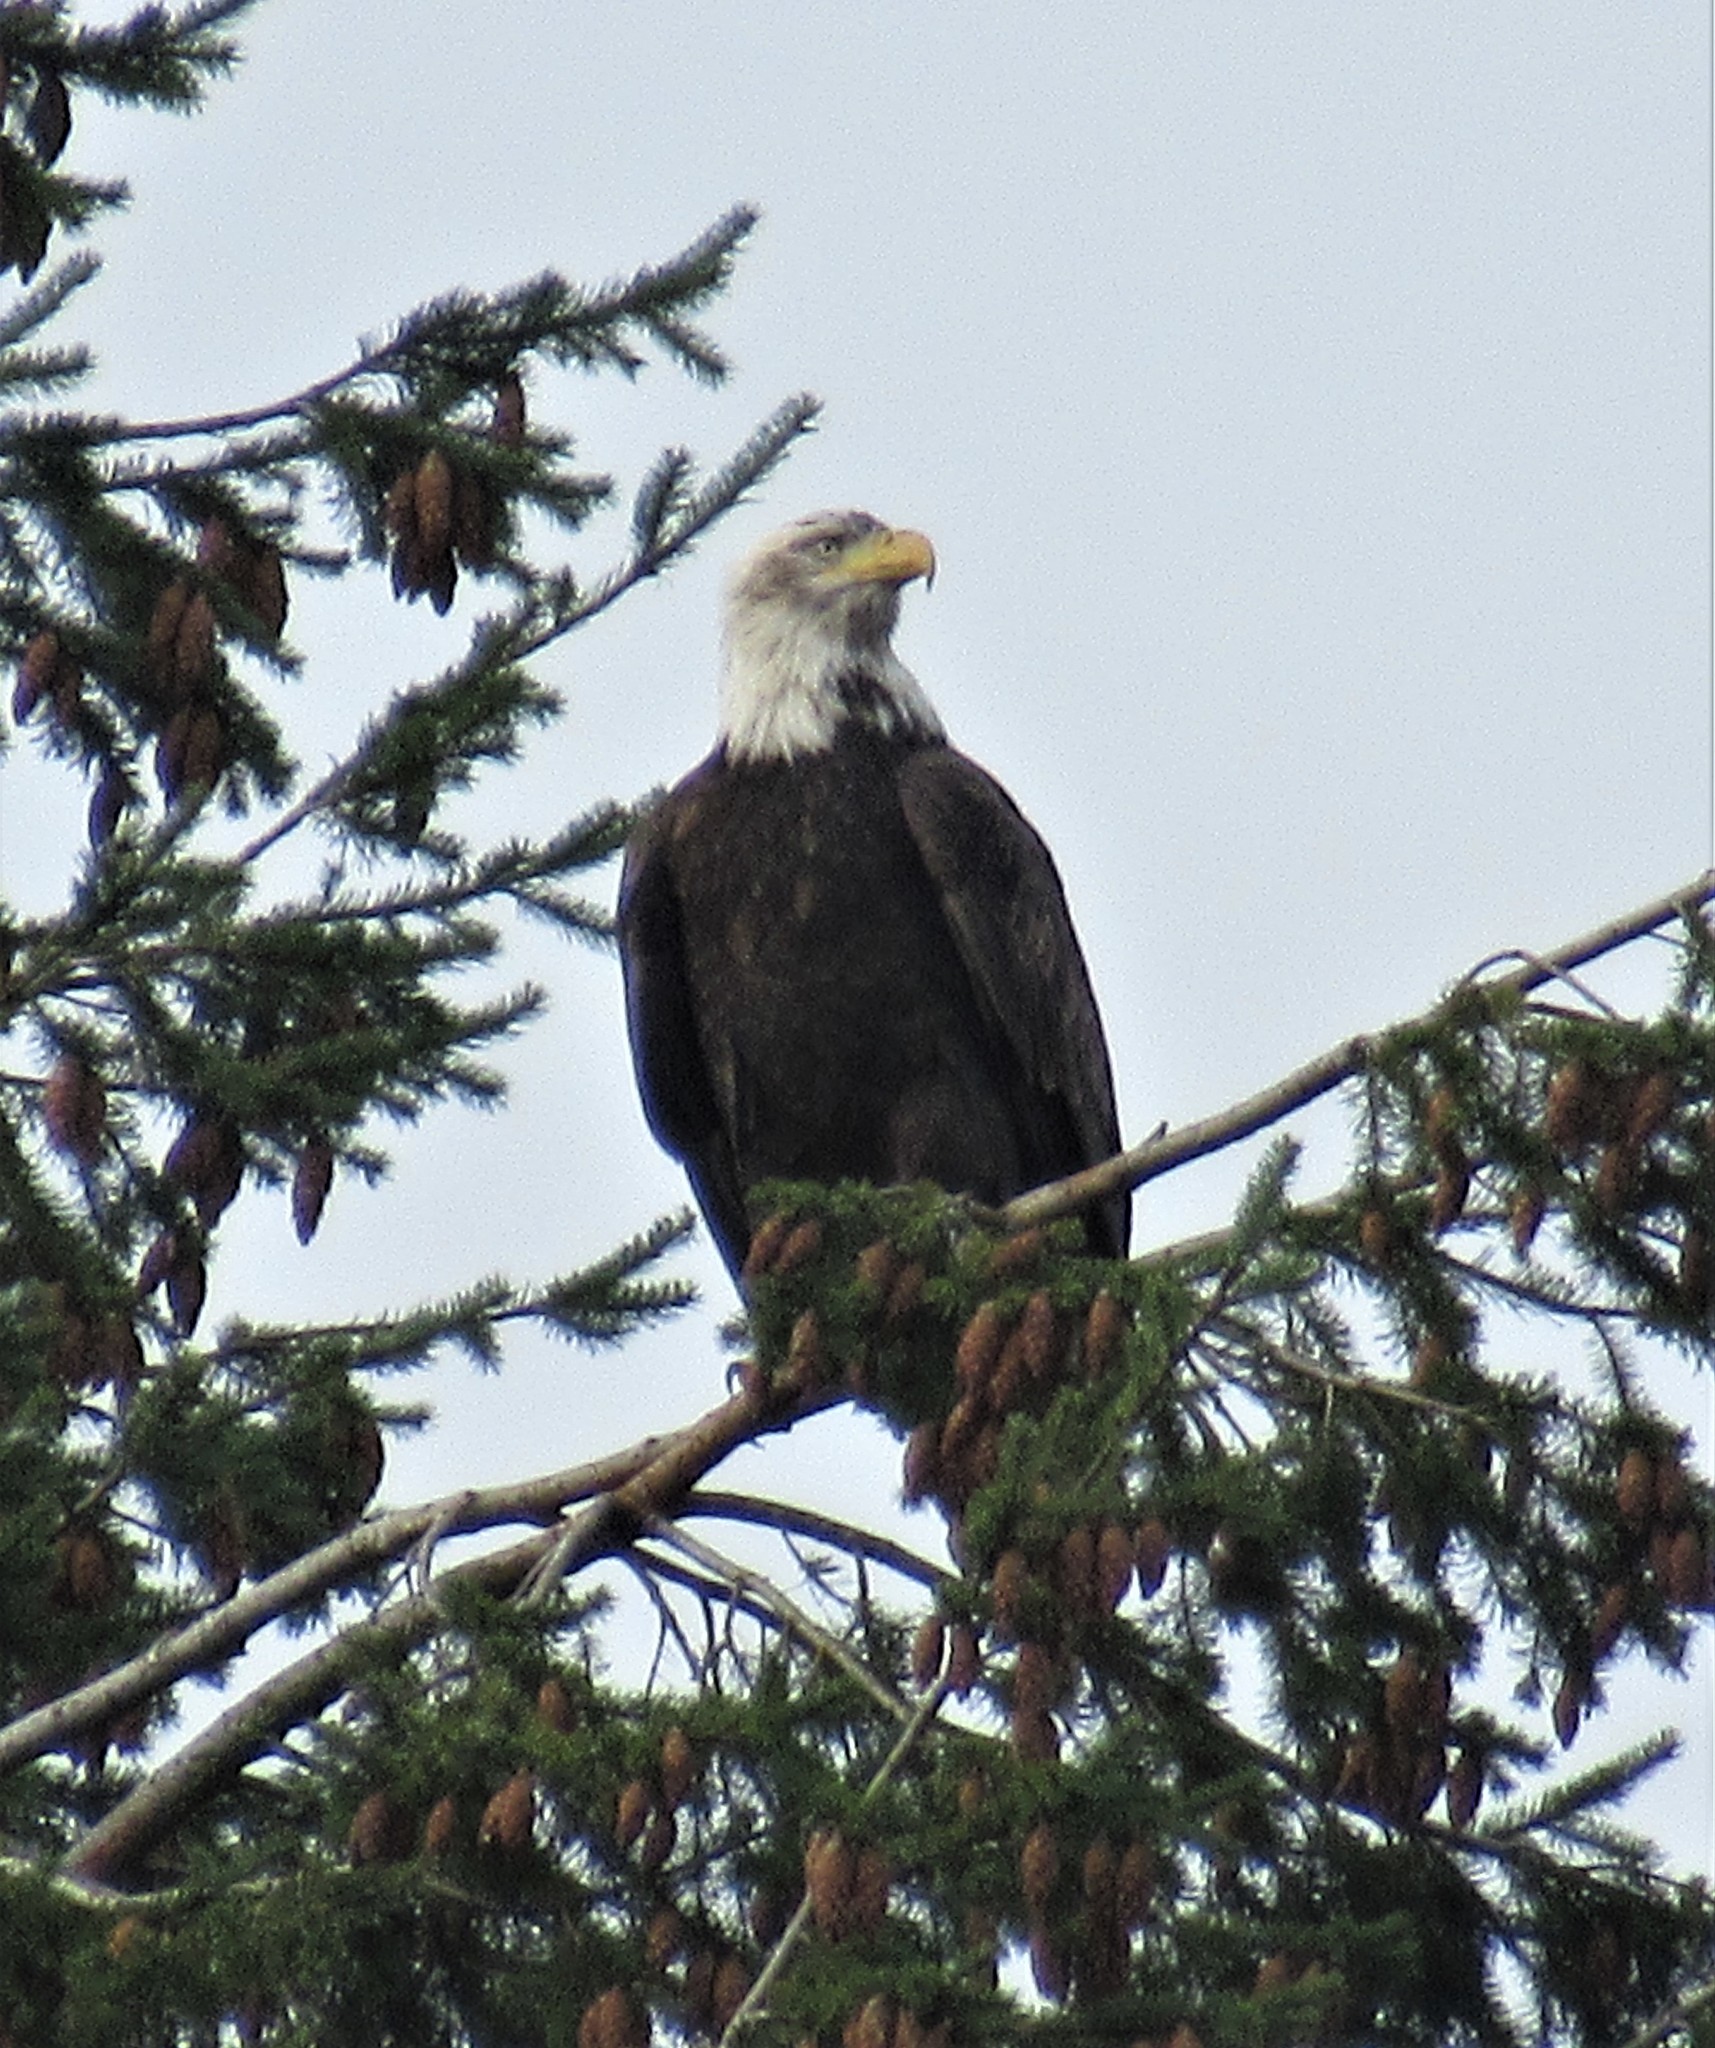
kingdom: Animalia
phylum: Chordata
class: Aves
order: Accipitriformes
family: Accipitridae
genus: Haliaeetus
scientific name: Haliaeetus leucocephalus
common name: Bald eagle
